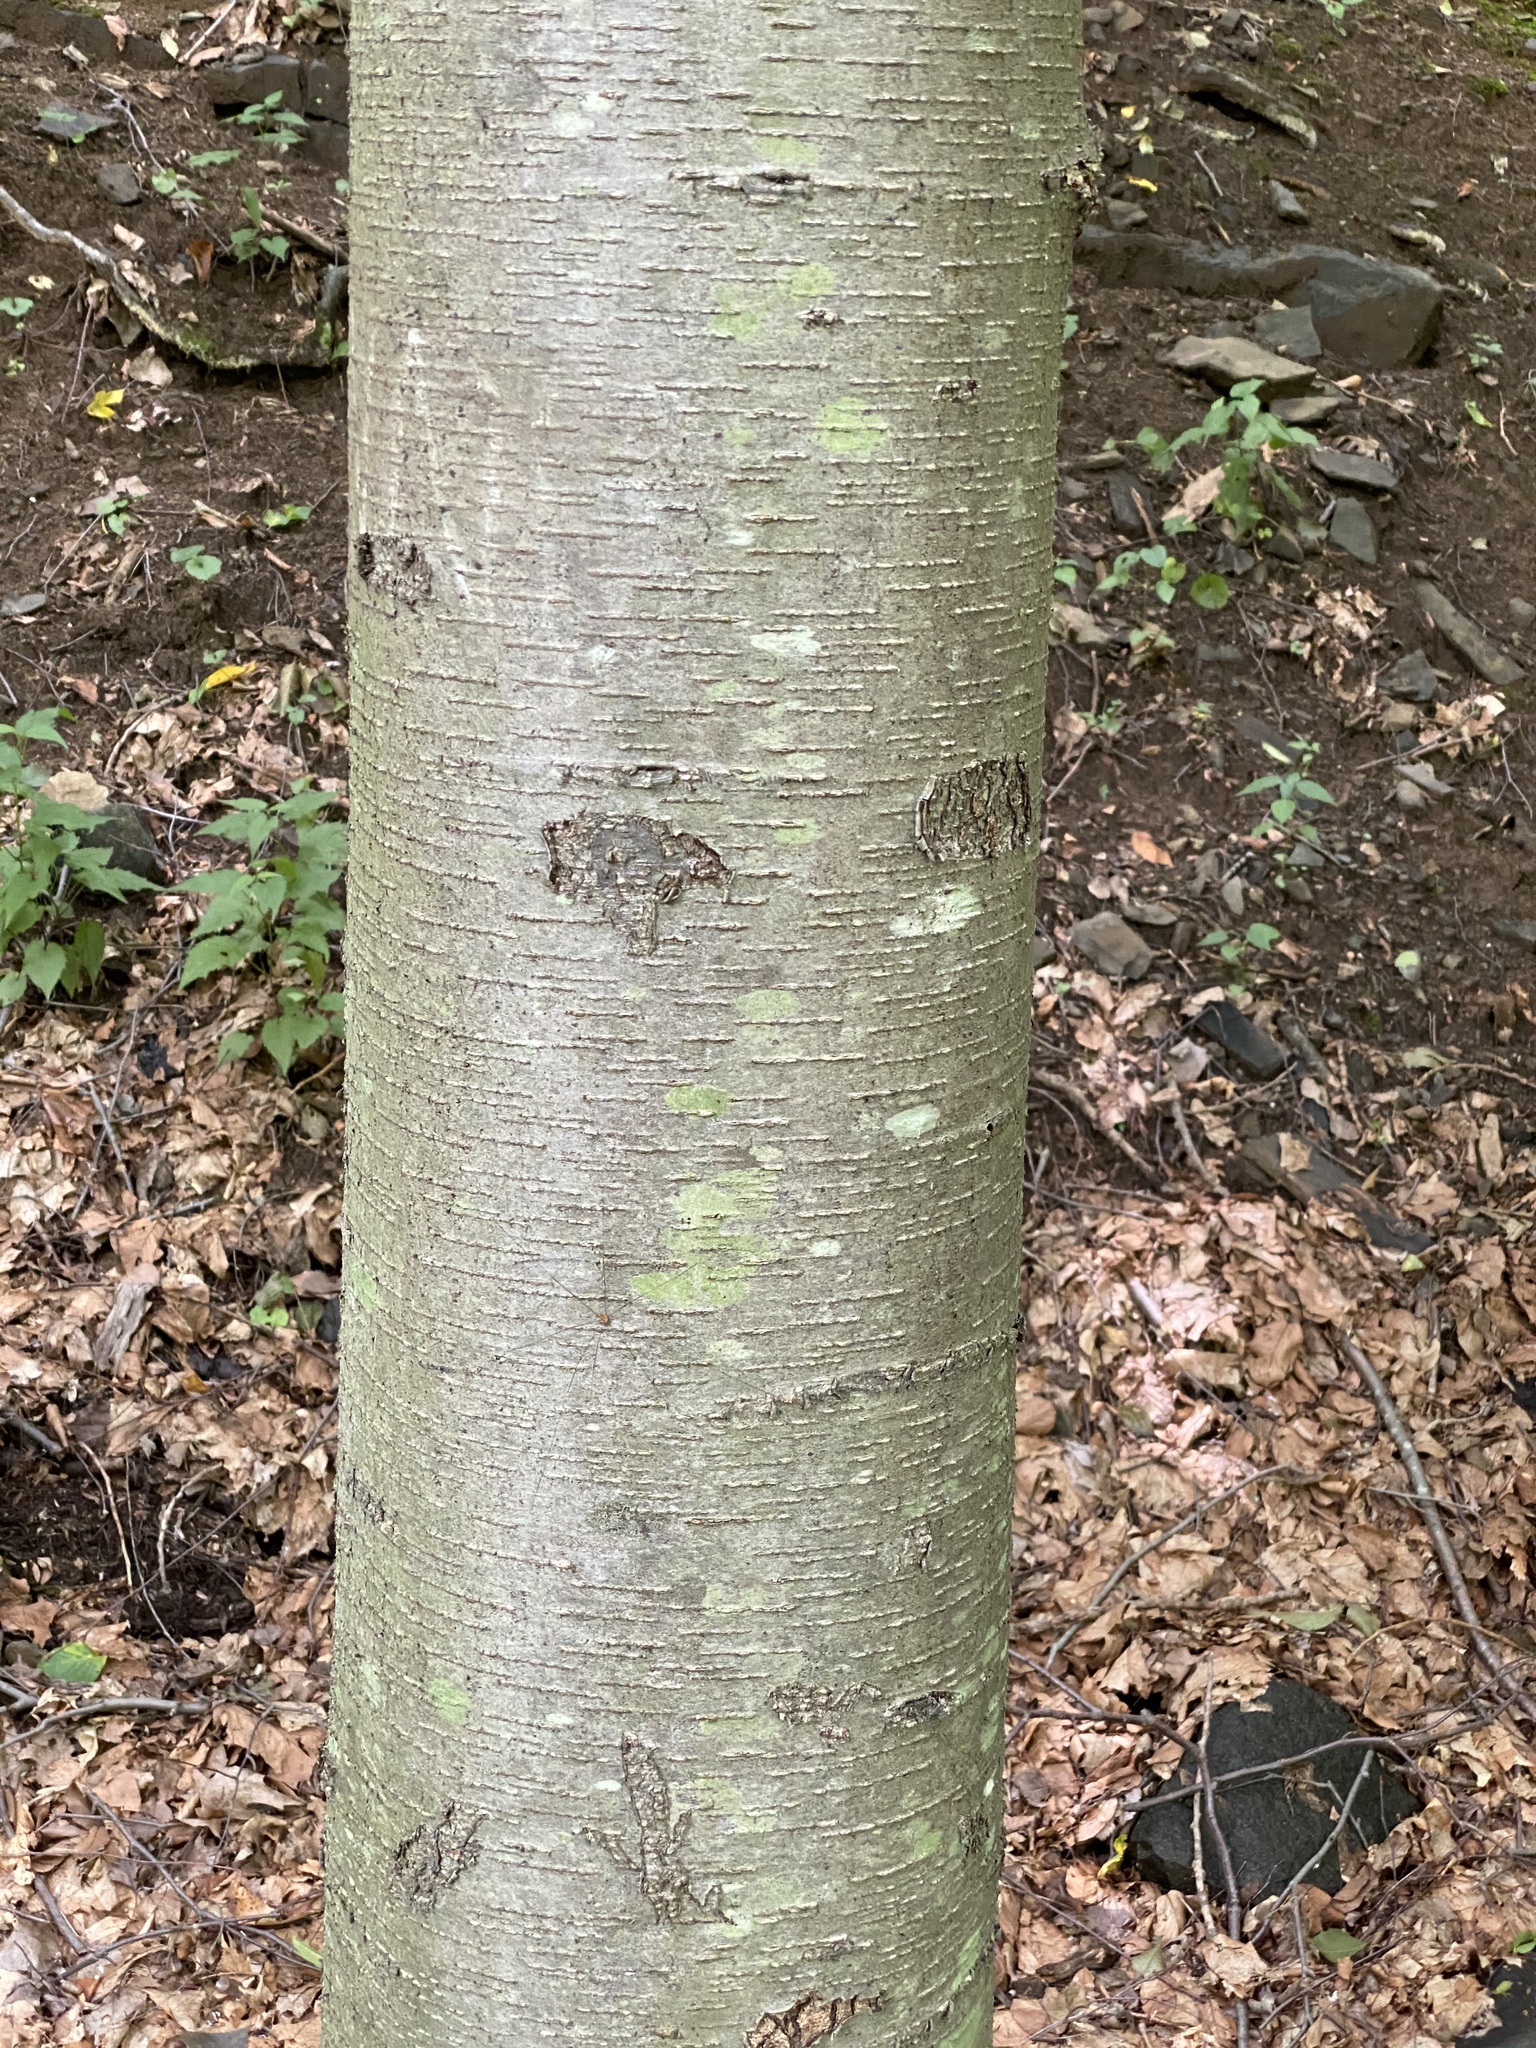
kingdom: Plantae
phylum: Tracheophyta
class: Magnoliopsida
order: Fagales
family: Betulaceae
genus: Betula
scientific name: Betula lenta
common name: Black birch
